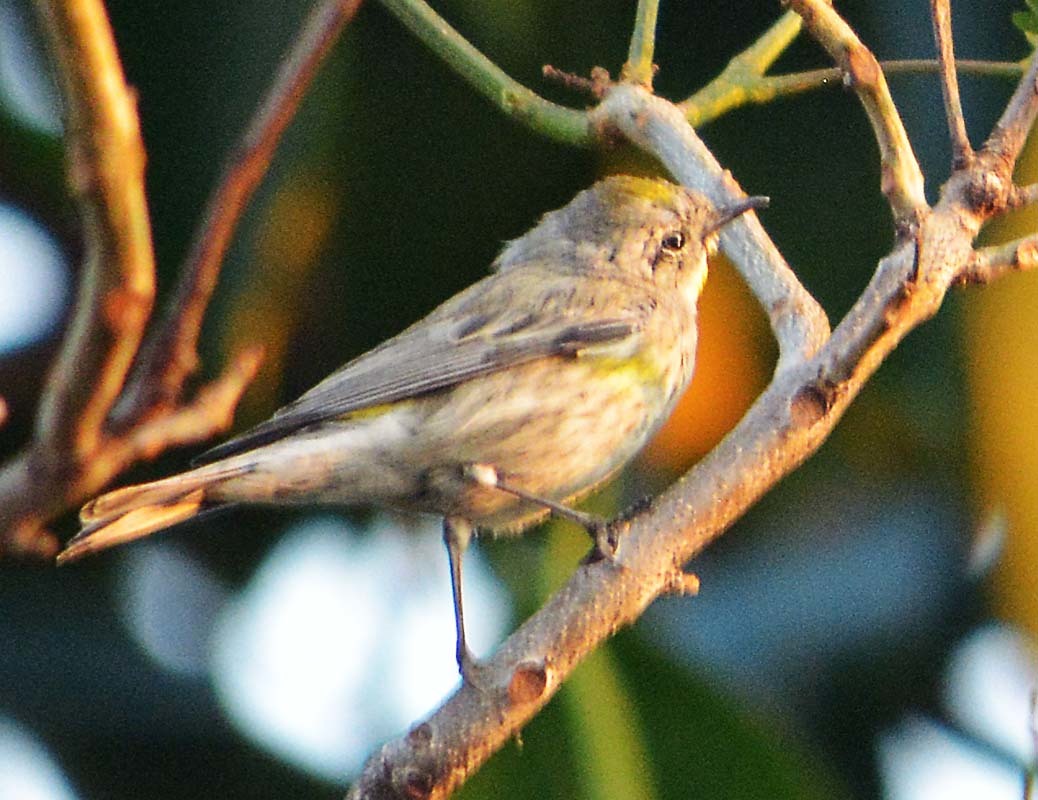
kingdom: Animalia
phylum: Chordata
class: Aves
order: Passeriformes
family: Parulidae
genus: Setophaga
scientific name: Setophaga coronata
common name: Myrtle warbler
